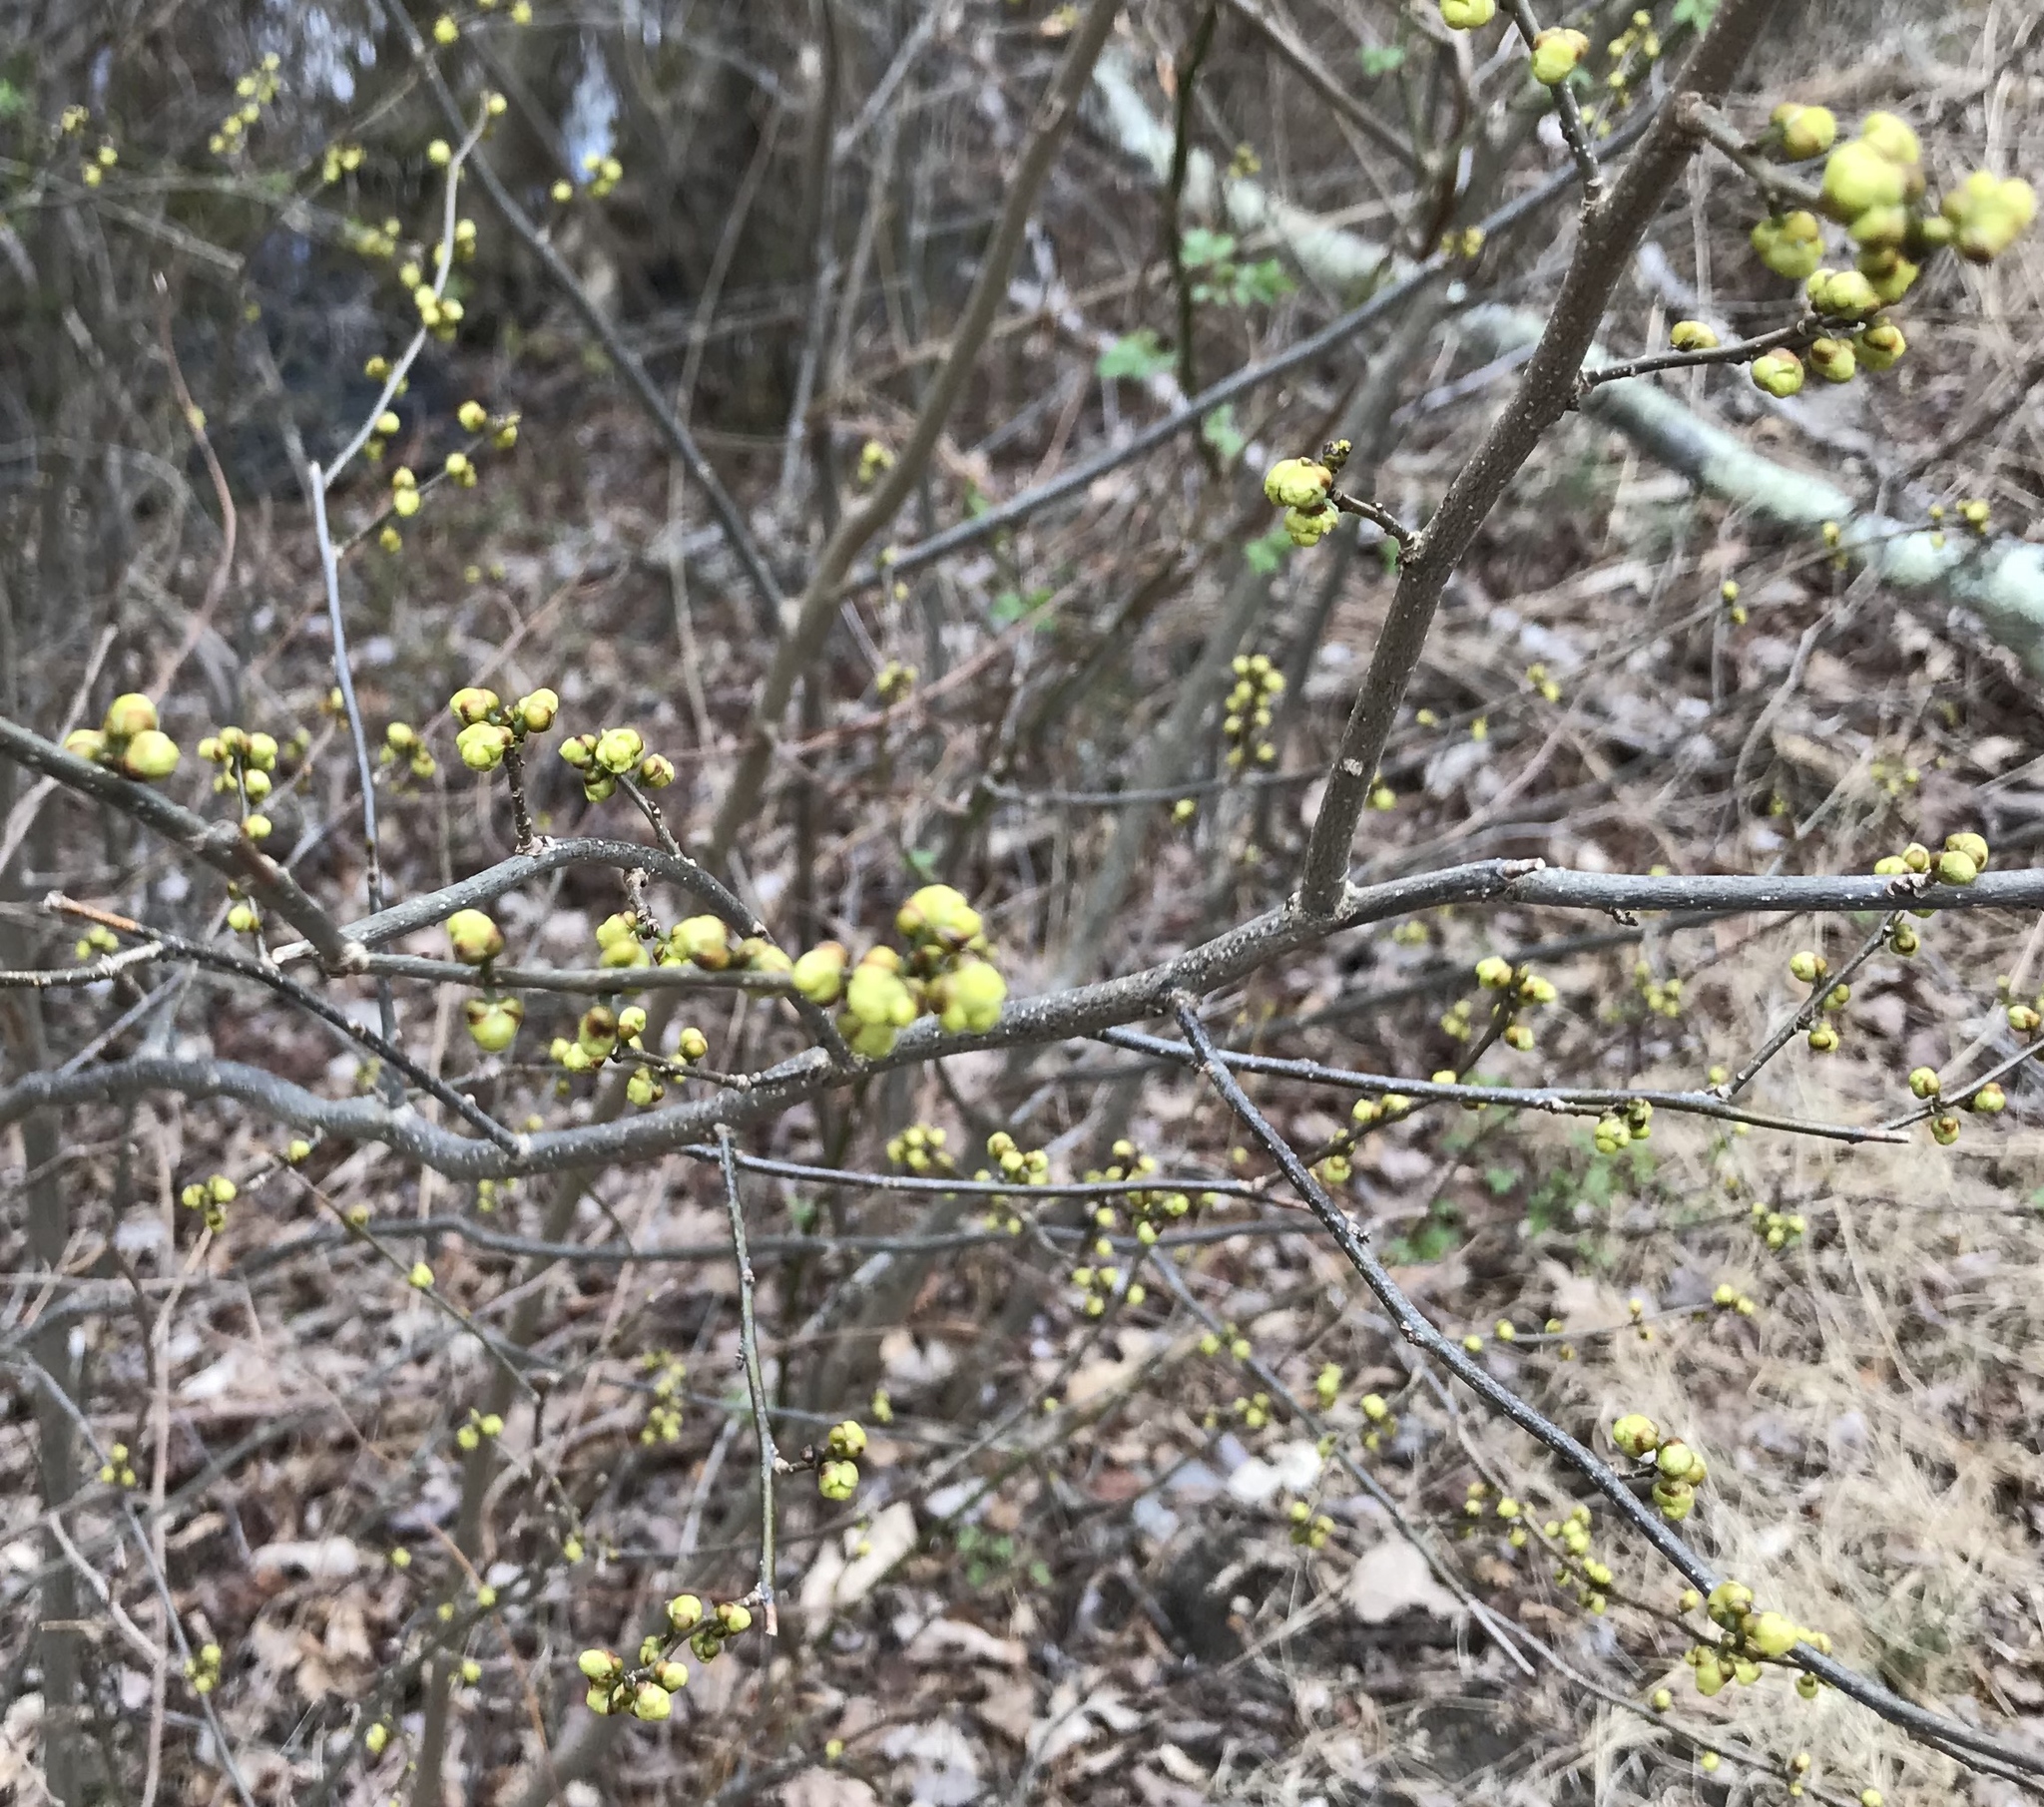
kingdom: Plantae
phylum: Tracheophyta
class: Magnoliopsida
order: Laurales
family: Lauraceae
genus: Lindera
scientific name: Lindera benzoin
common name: Spicebush
